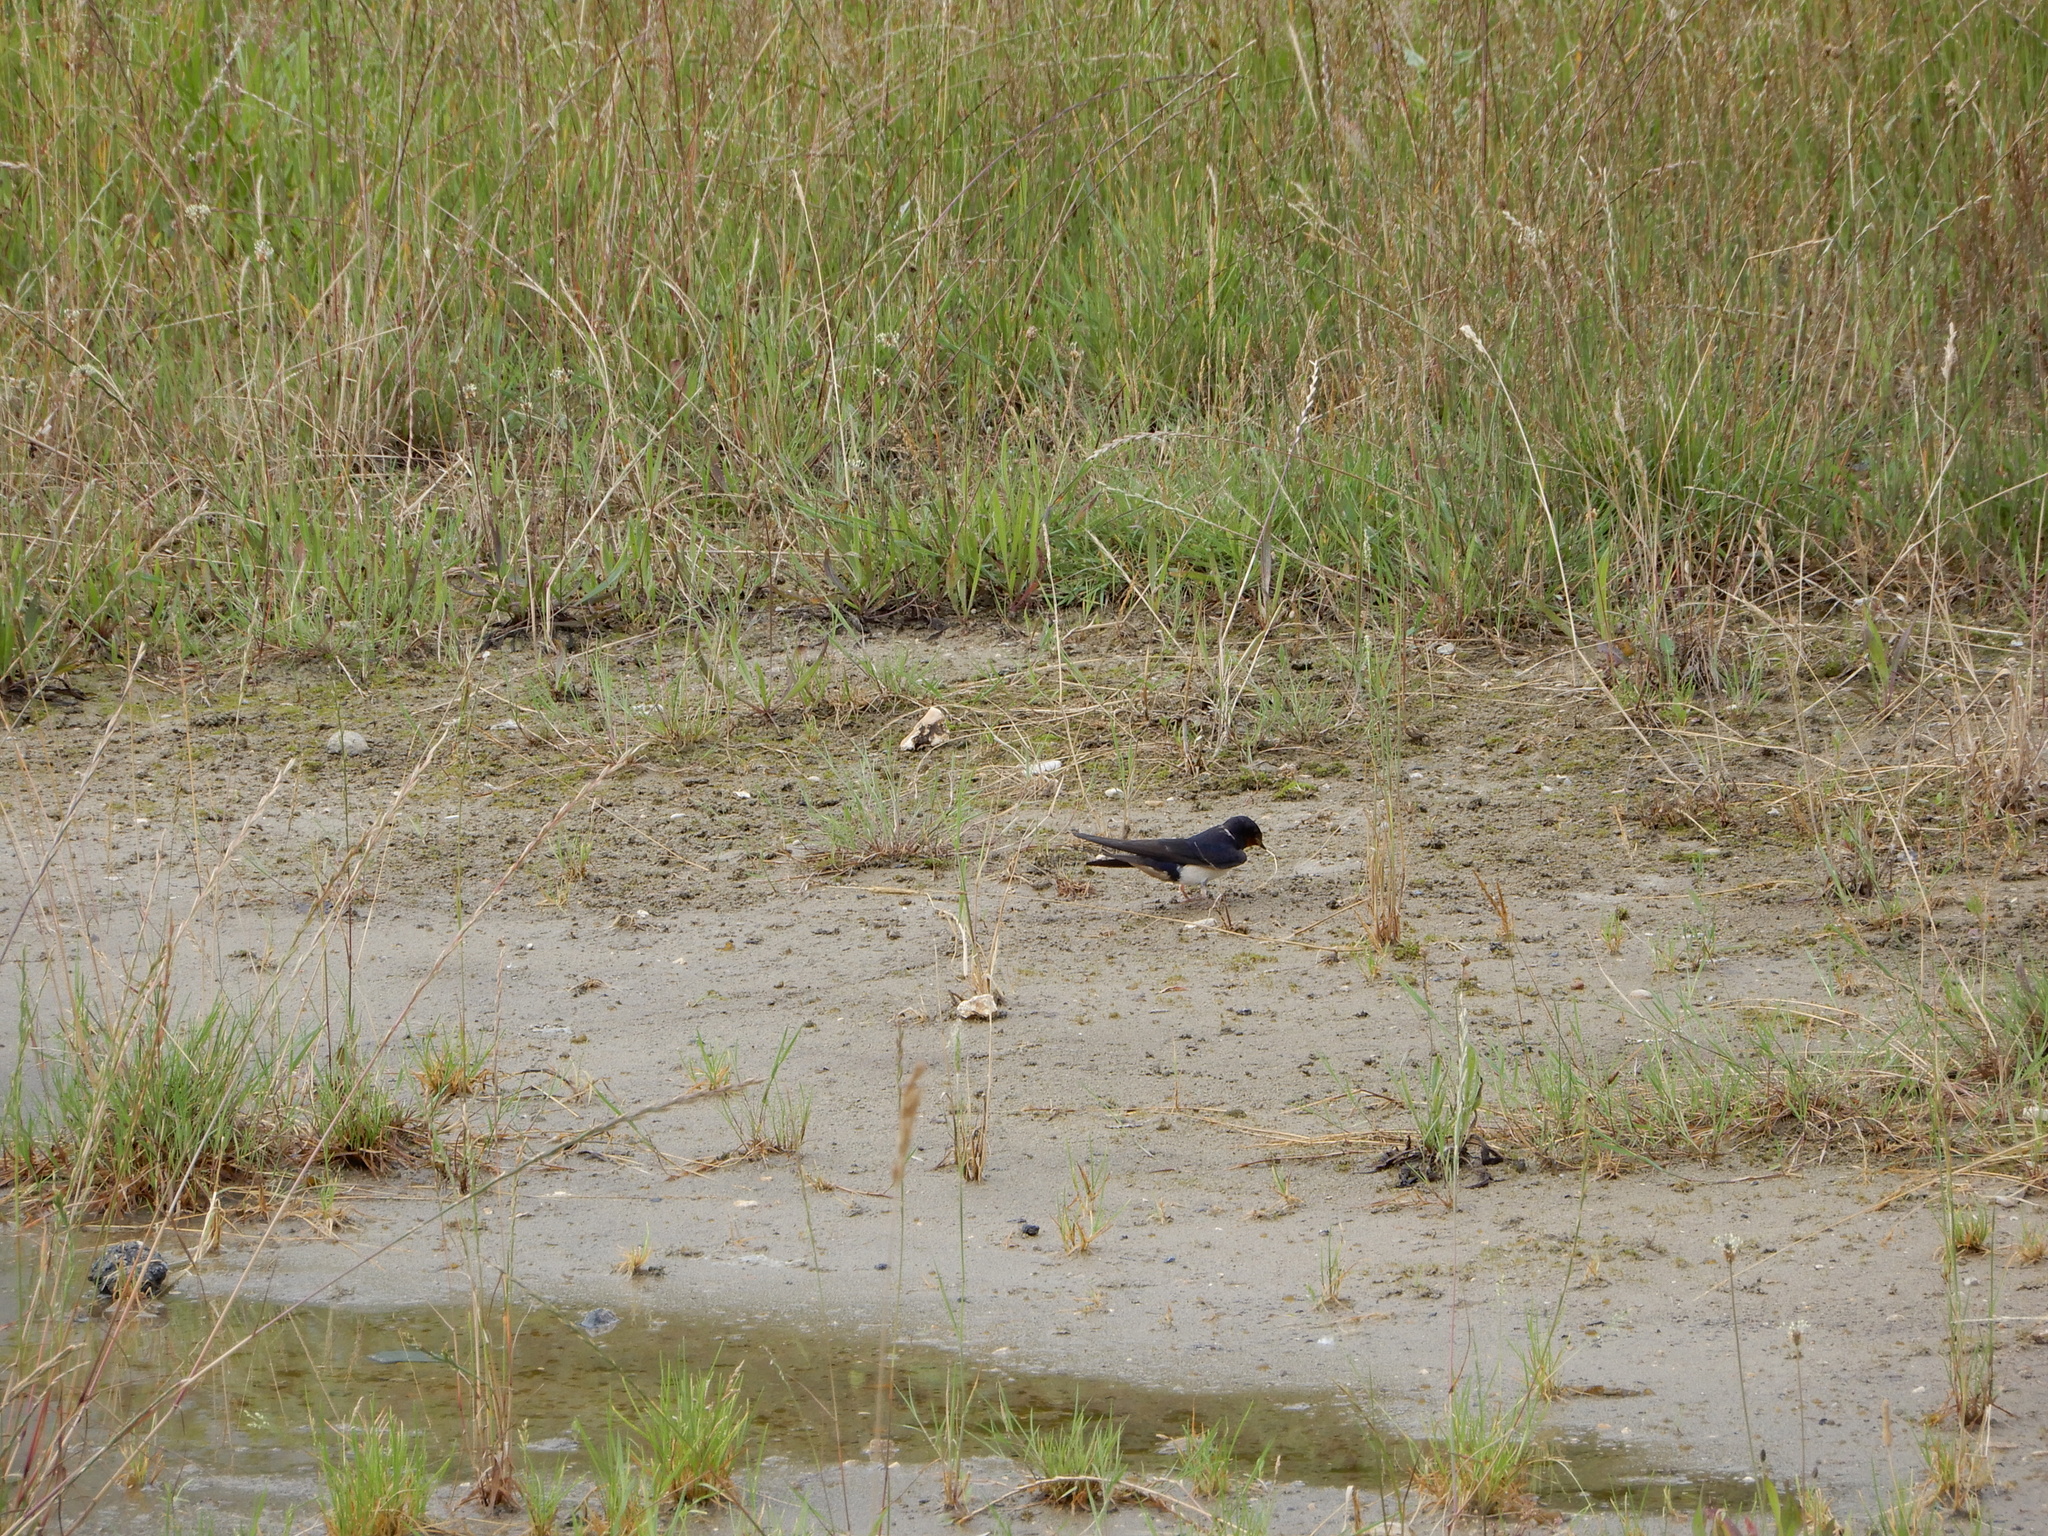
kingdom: Animalia
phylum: Chordata
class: Aves
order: Passeriformes
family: Hirundinidae
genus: Hirundo
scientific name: Hirundo rustica
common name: Barn swallow
